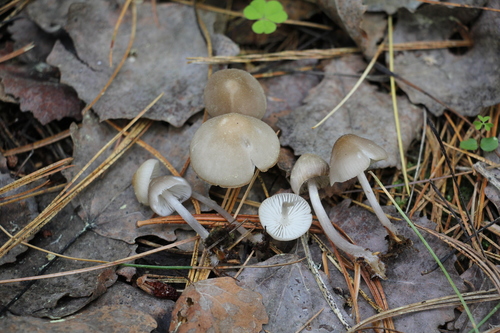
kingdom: Fungi
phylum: Basidiomycota
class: Agaricomycetes
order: Agaricales
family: Mycenaceae
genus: Mycena
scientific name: Mycena niveipes
